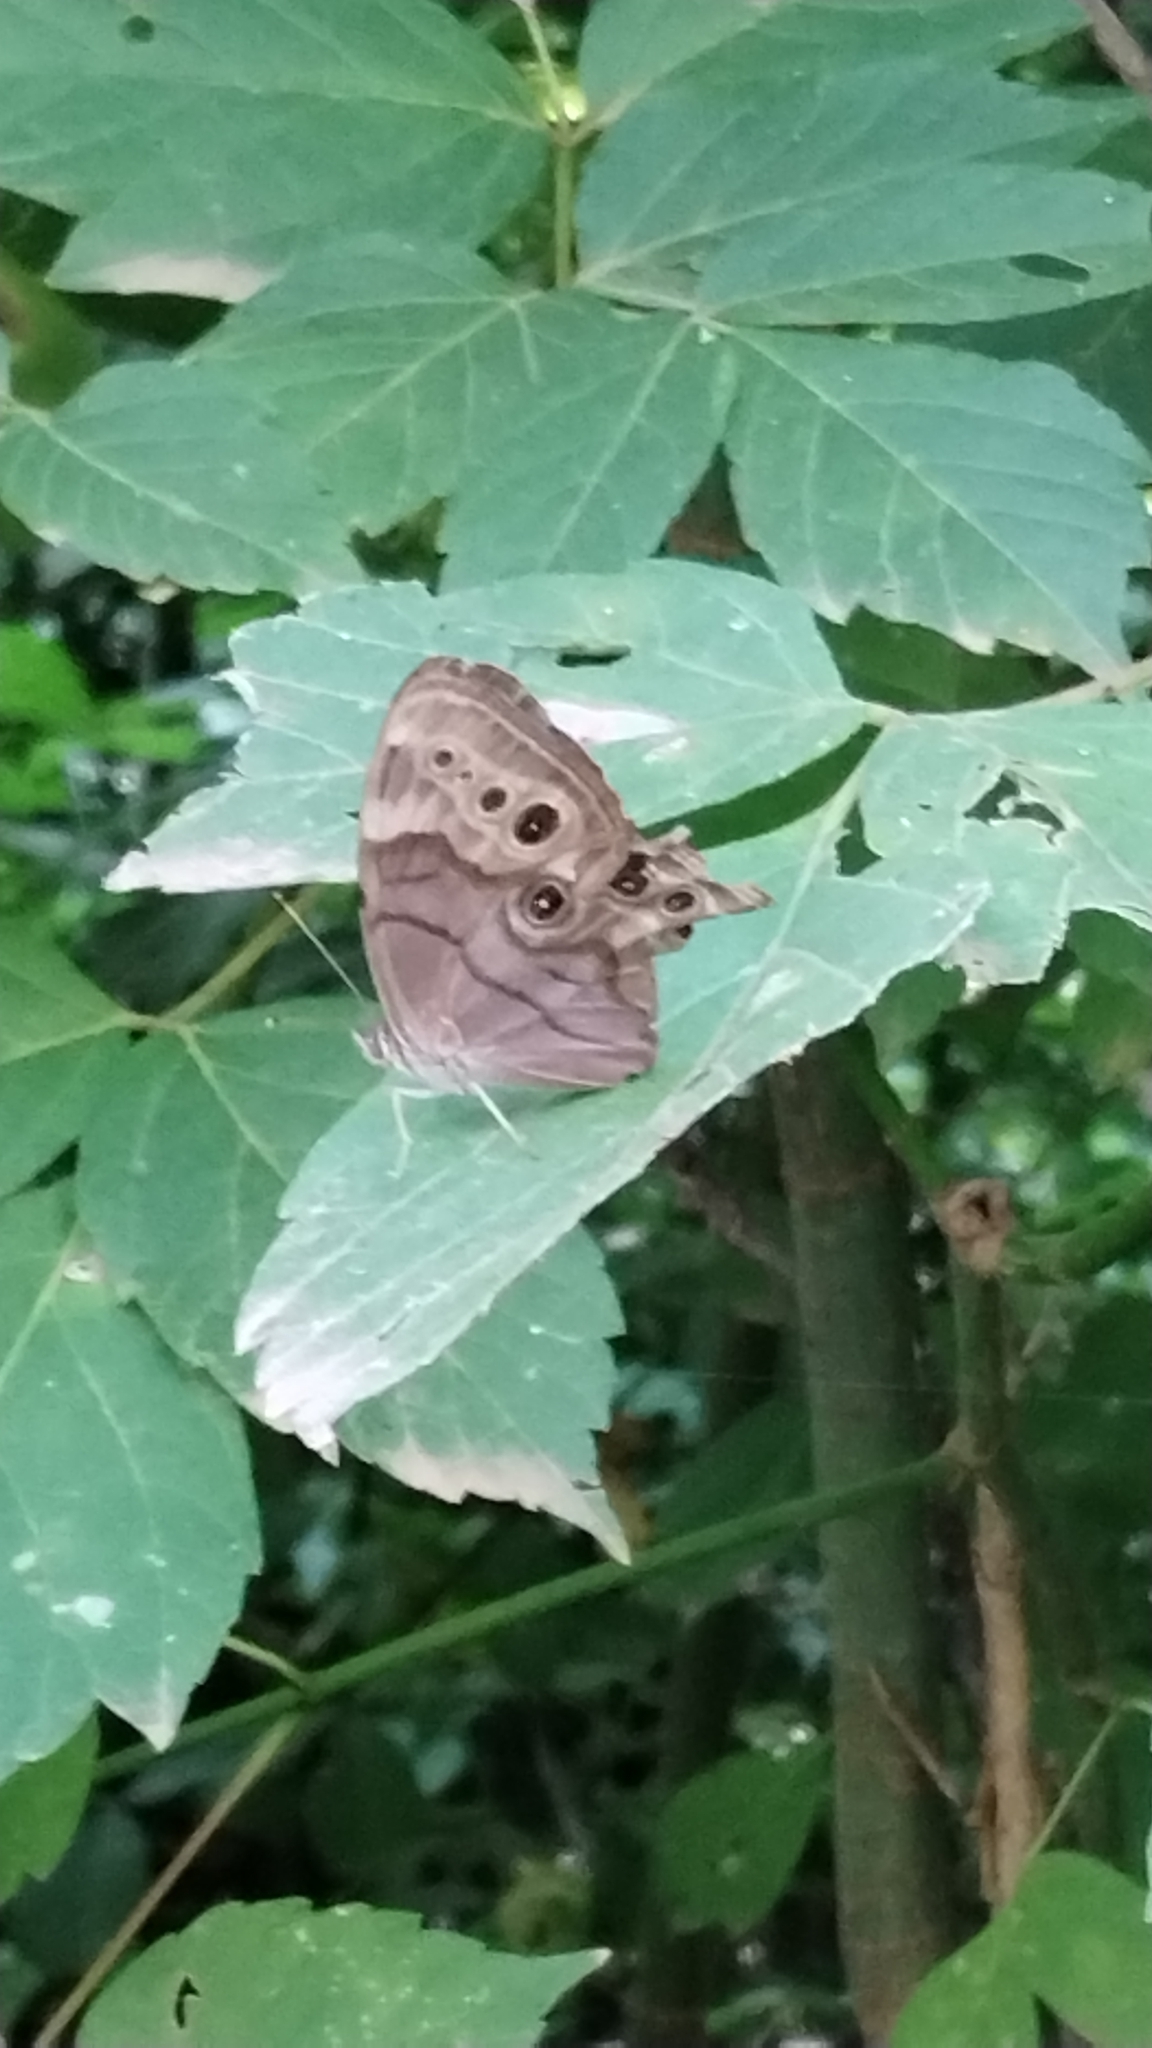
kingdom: Animalia
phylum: Arthropoda
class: Insecta
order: Lepidoptera
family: Nymphalidae
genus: Lethe
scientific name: Lethe anthedon
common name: Northern pearly-eye
